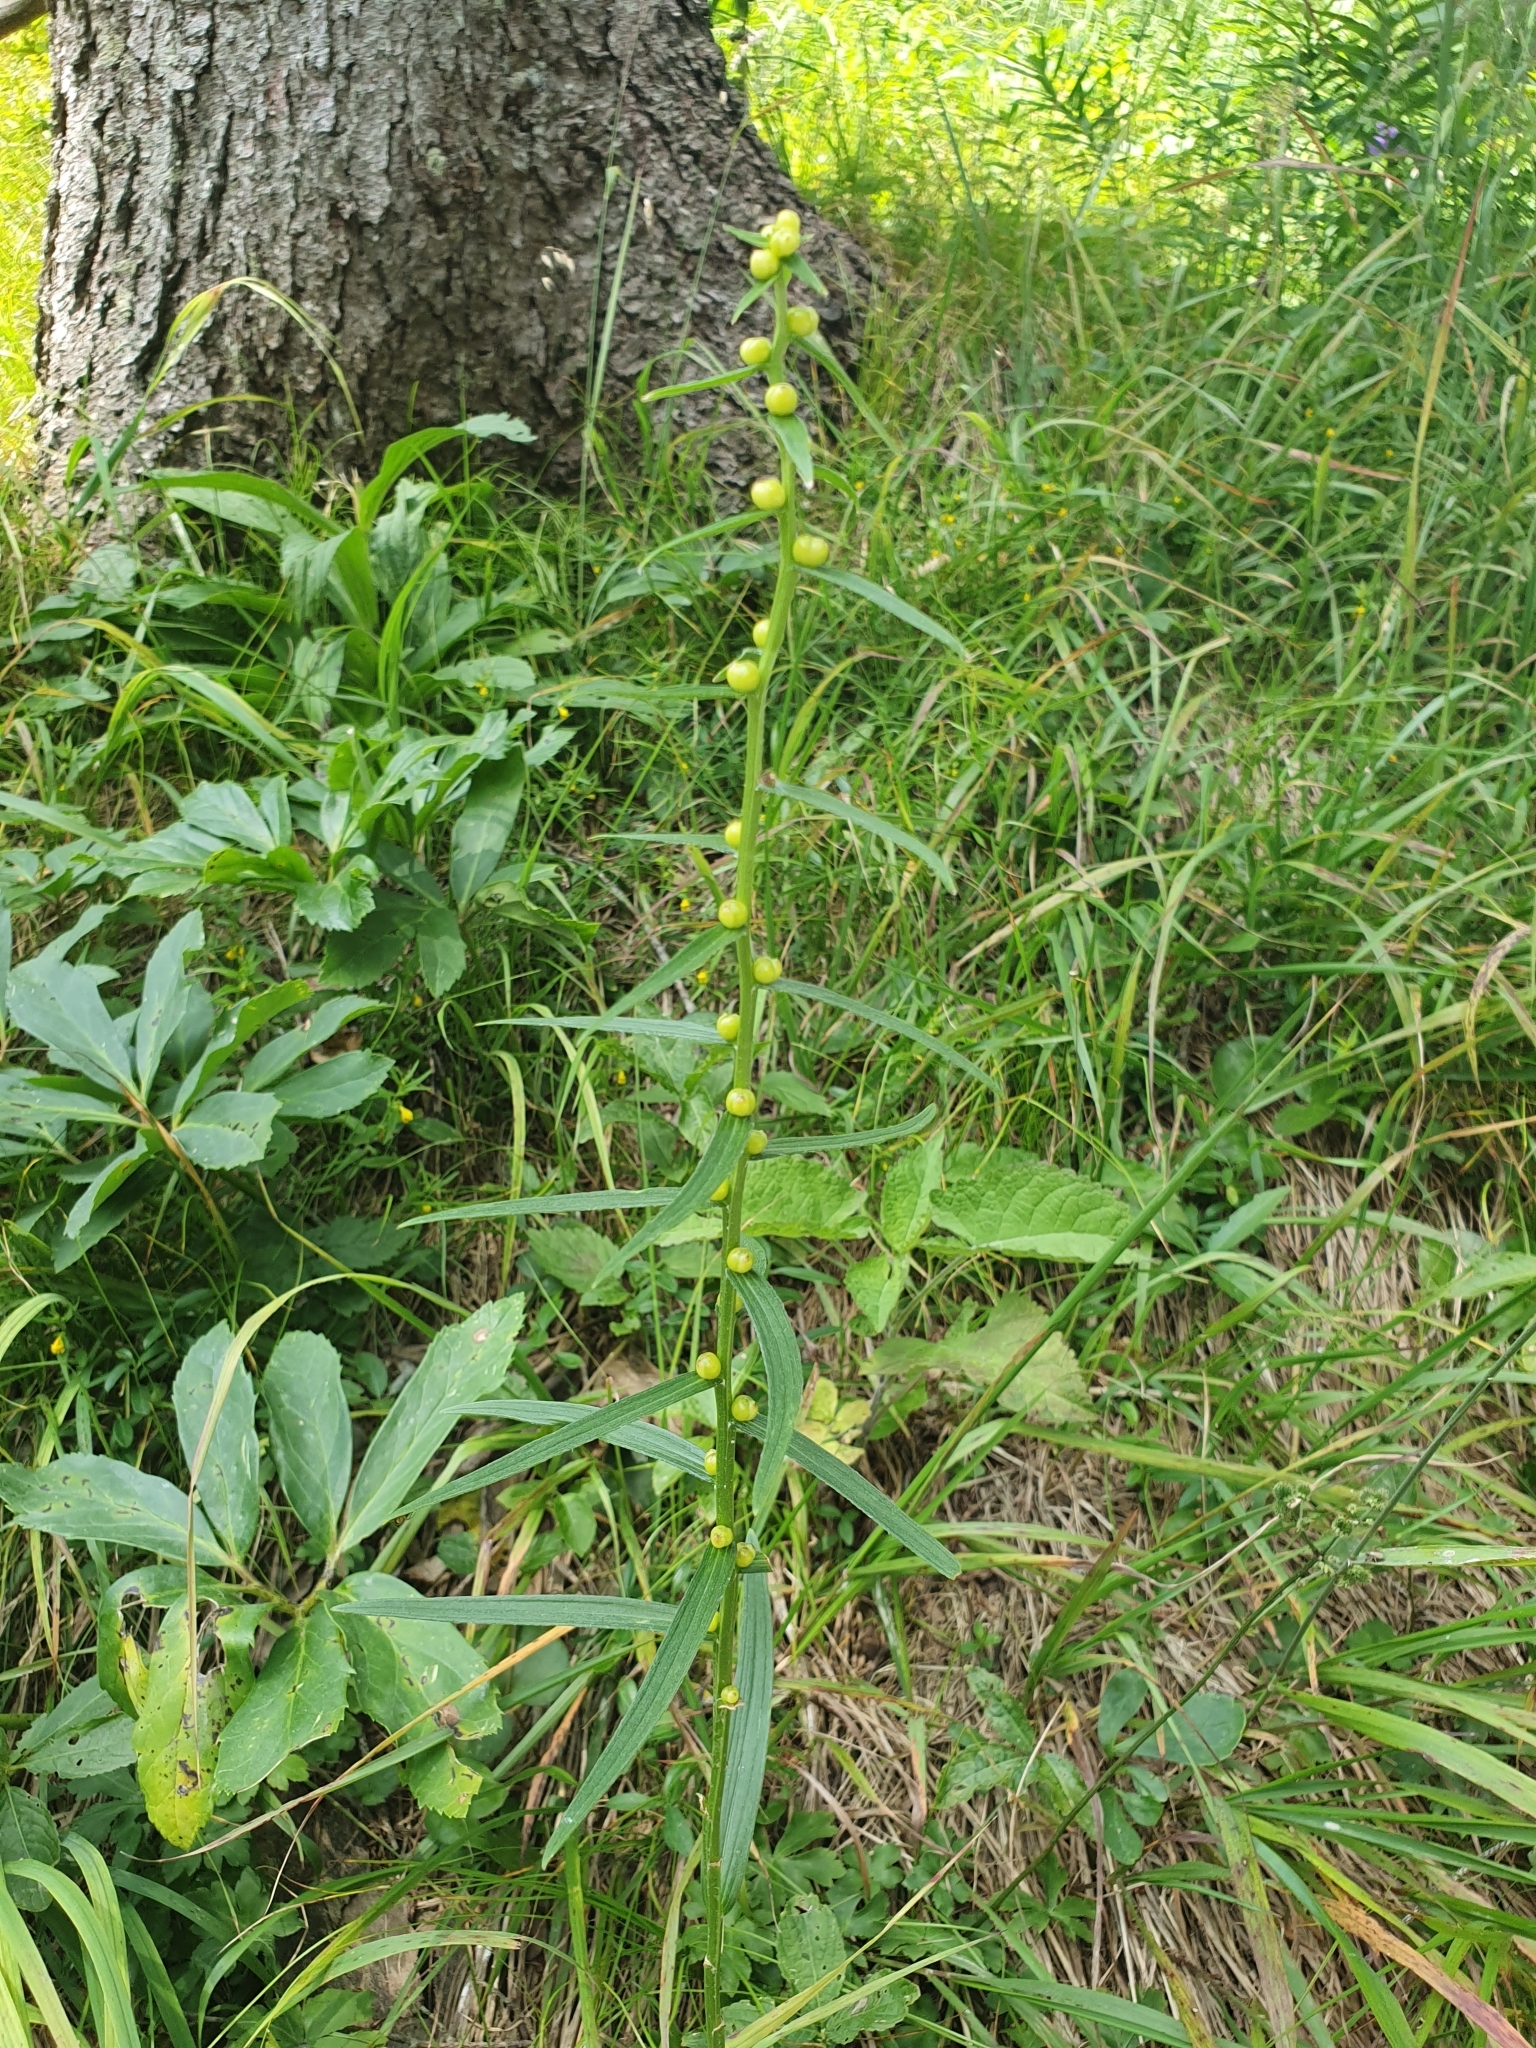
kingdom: Plantae
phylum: Tracheophyta
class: Liliopsida
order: Liliales
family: Liliaceae
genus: Lilium
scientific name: Lilium bulbiferum
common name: Orange lily
